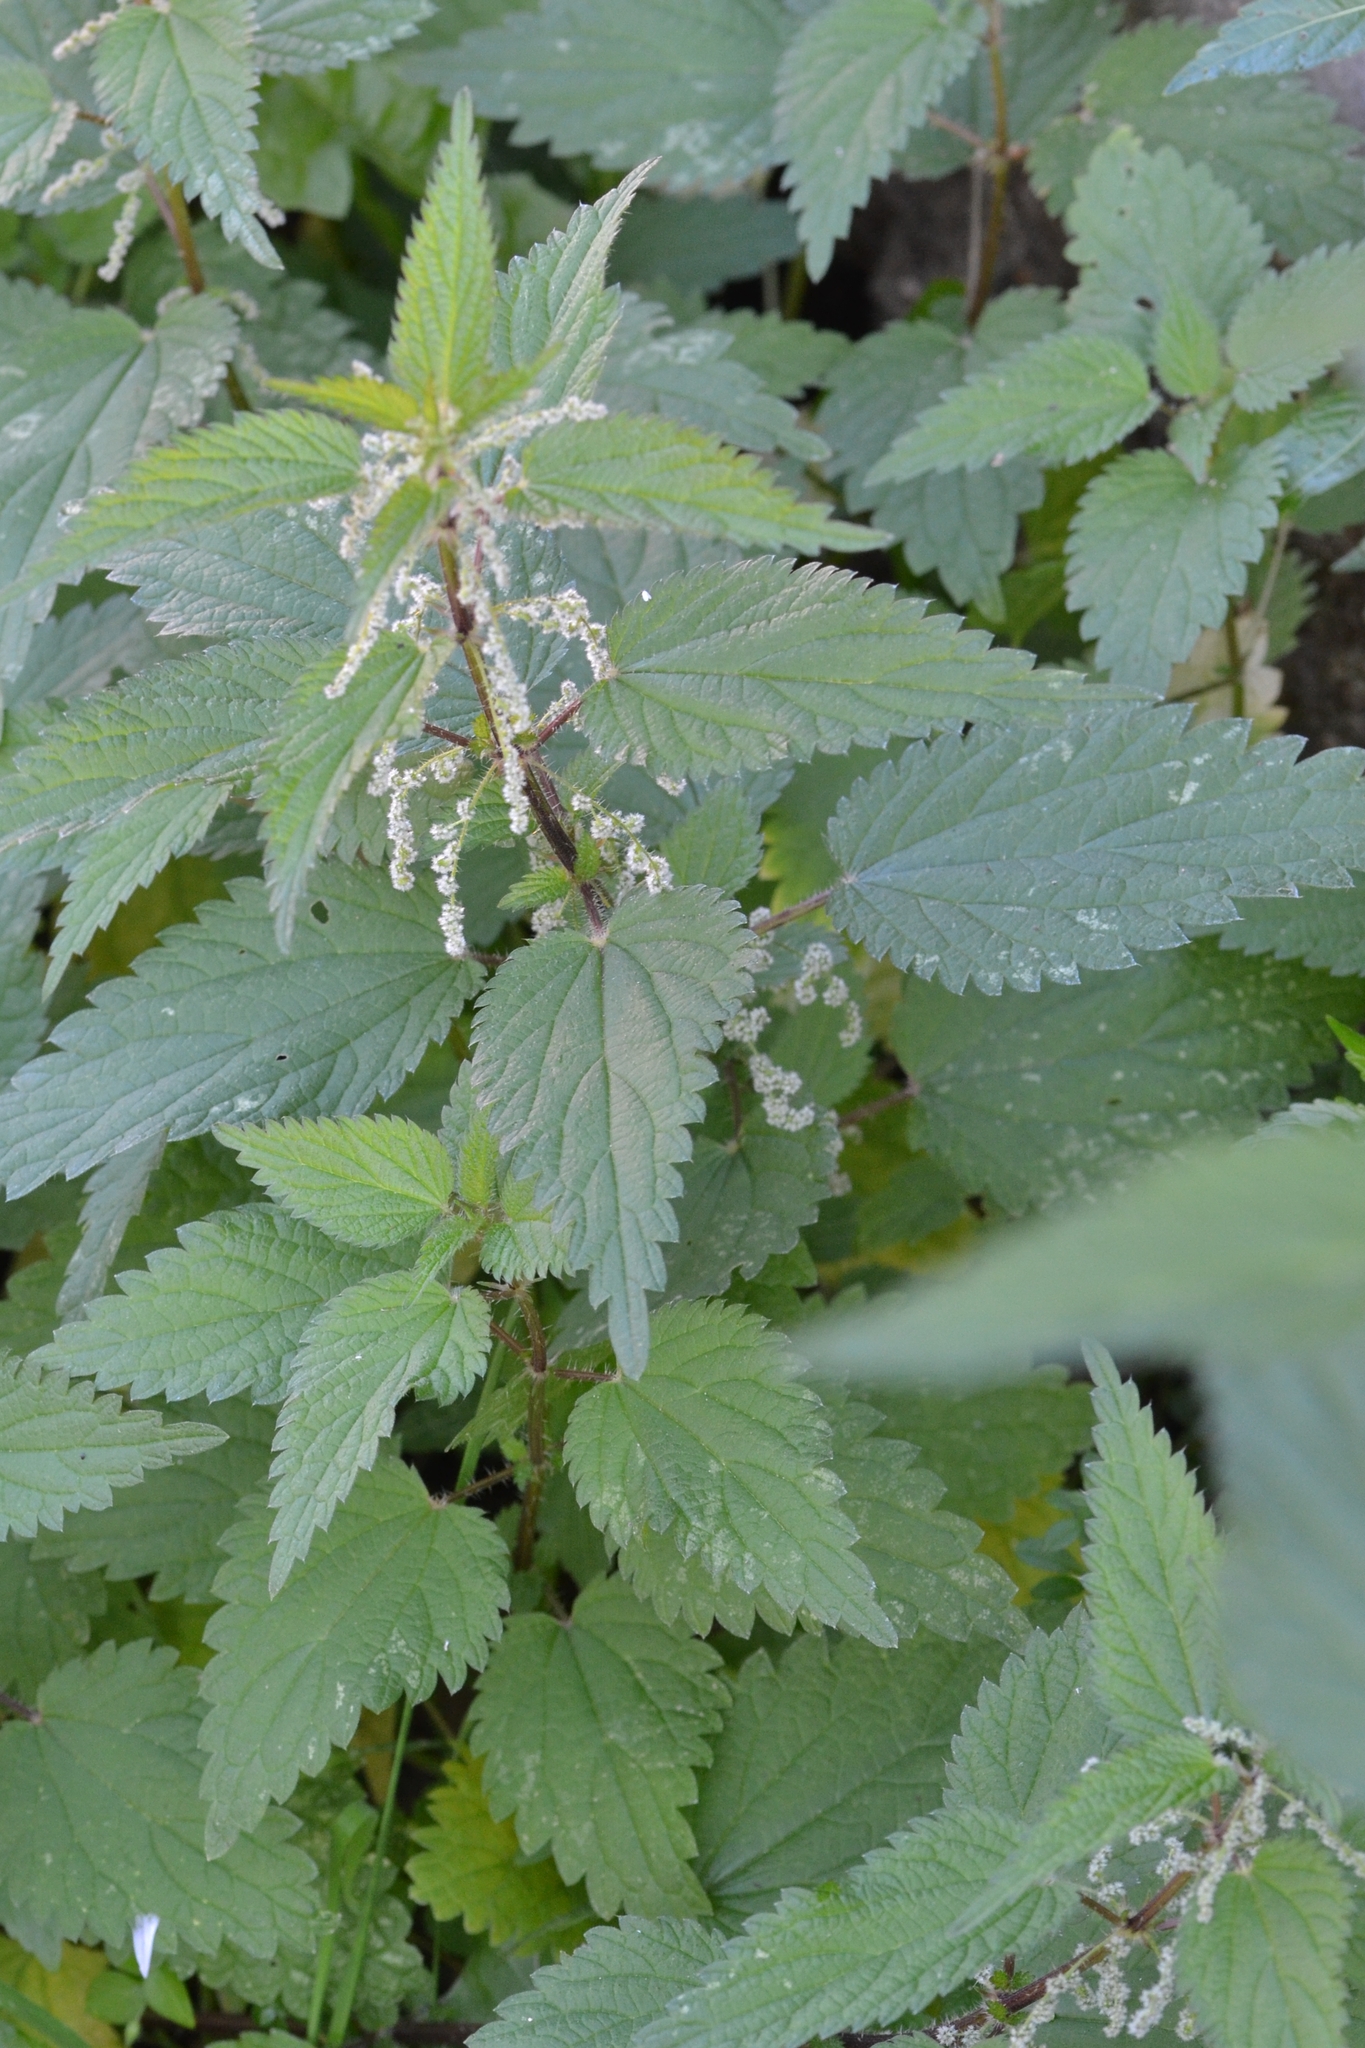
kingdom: Plantae
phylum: Tracheophyta
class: Magnoliopsida
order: Rosales
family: Urticaceae
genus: Urtica
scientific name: Urtica dioica
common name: Common nettle
